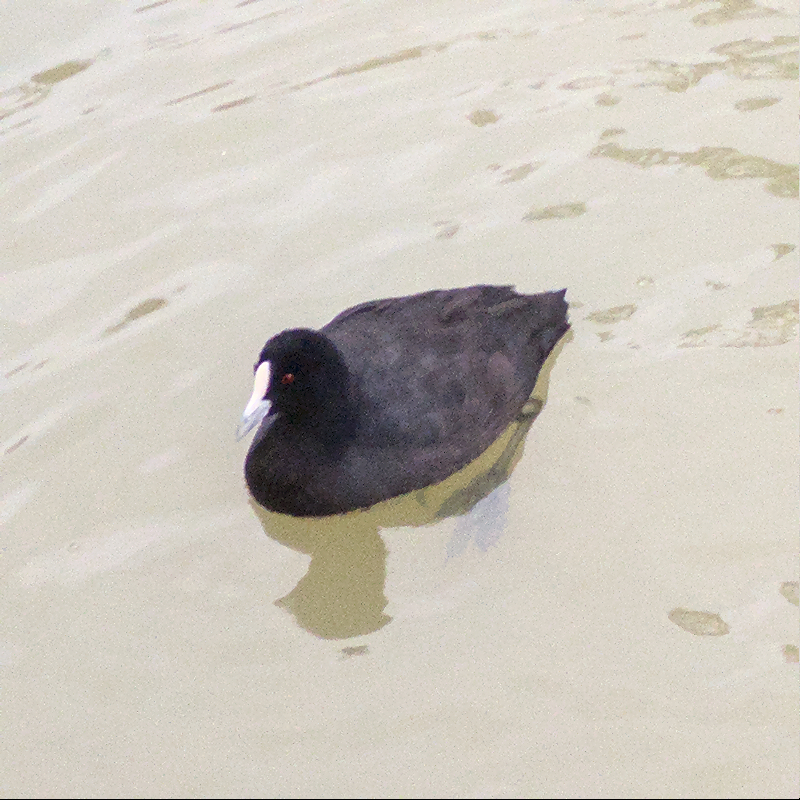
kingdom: Animalia
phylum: Chordata
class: Aves
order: Gruiformes
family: Rallidae
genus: Fulica
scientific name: Fulica atra
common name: Eurasian coot
